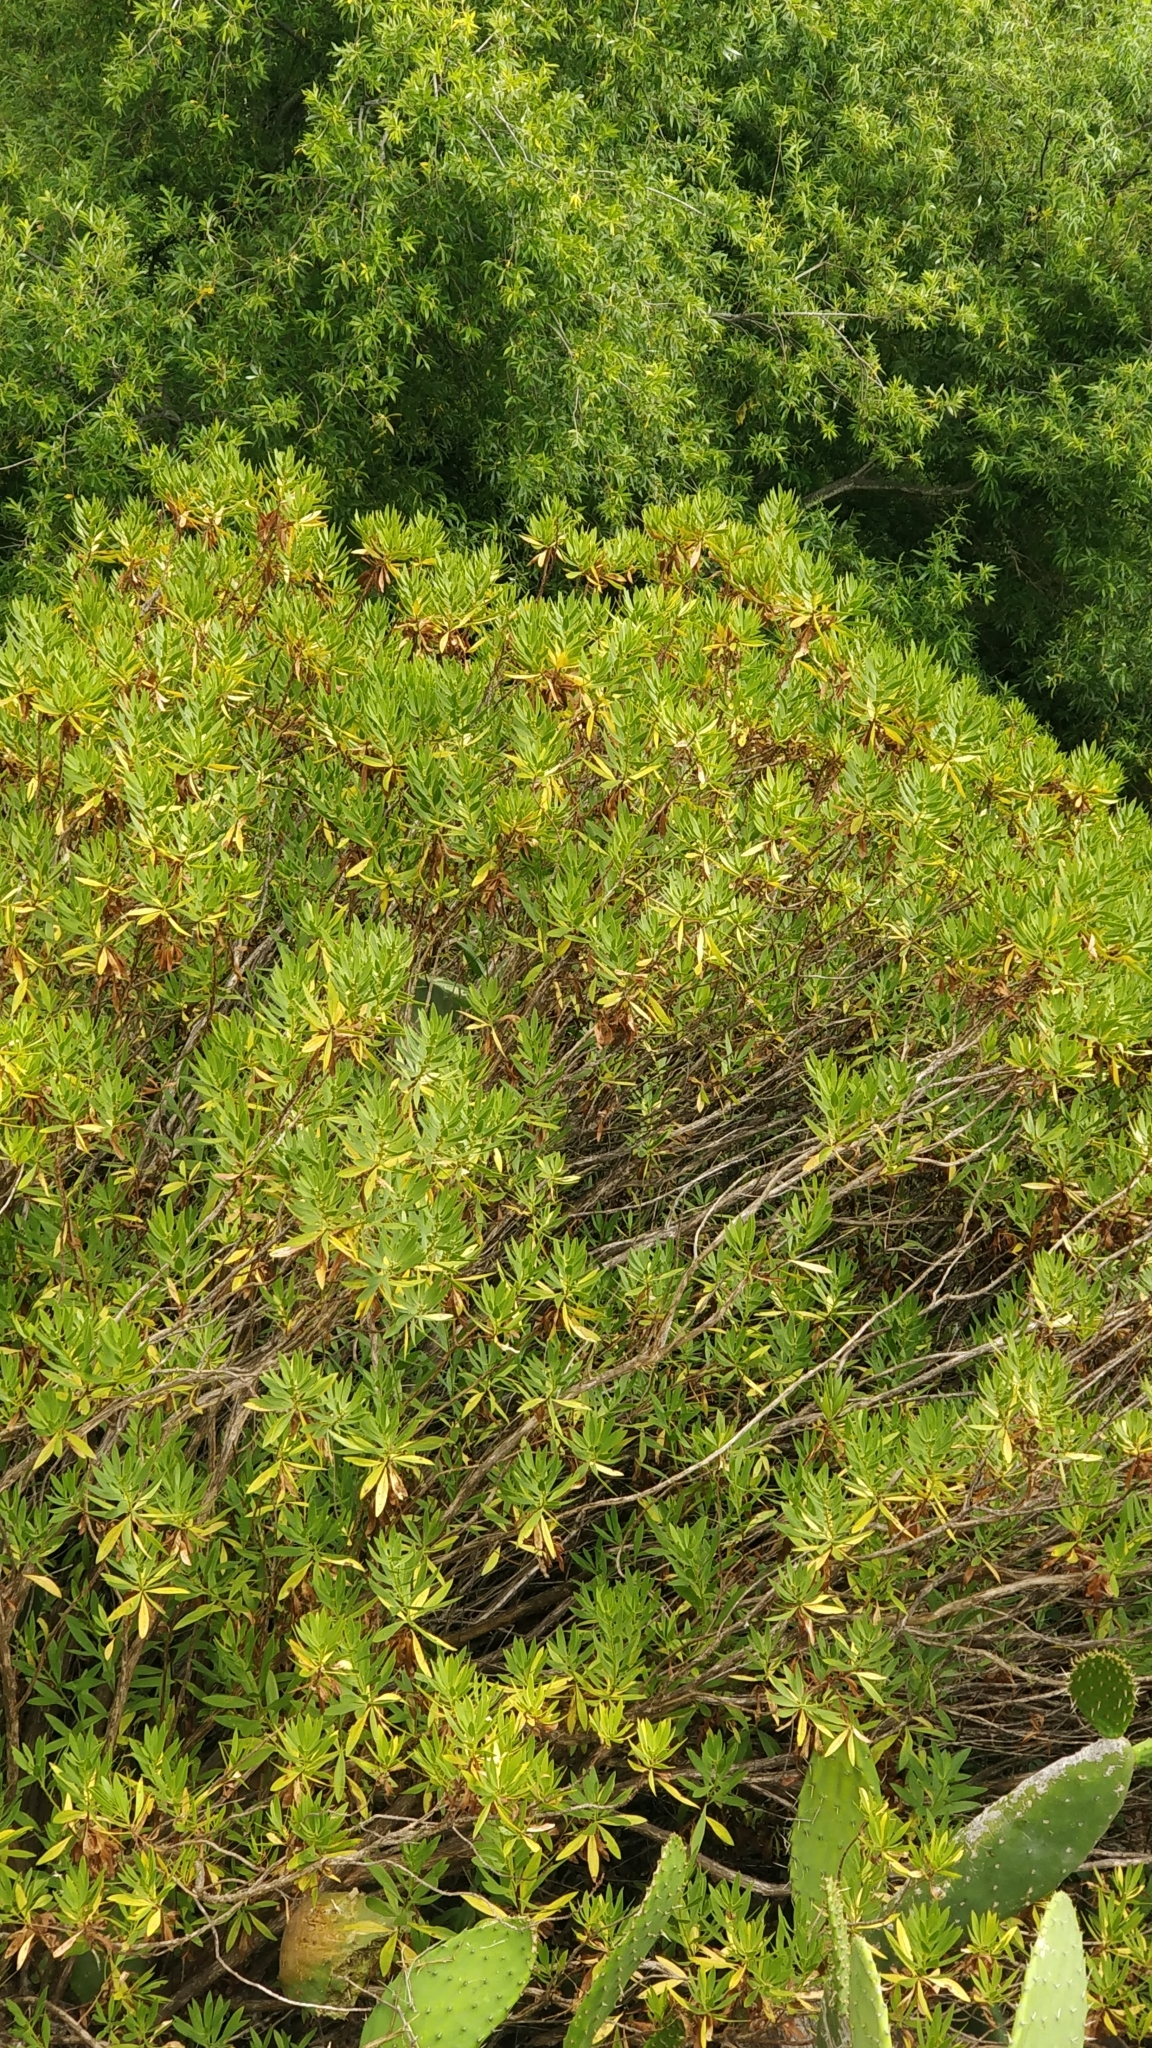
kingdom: Plantae
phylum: Tracheophyta
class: Magnoliopsida
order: Lamiales
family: Plantaginaceae
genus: Globularia
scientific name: Globularia salicina
